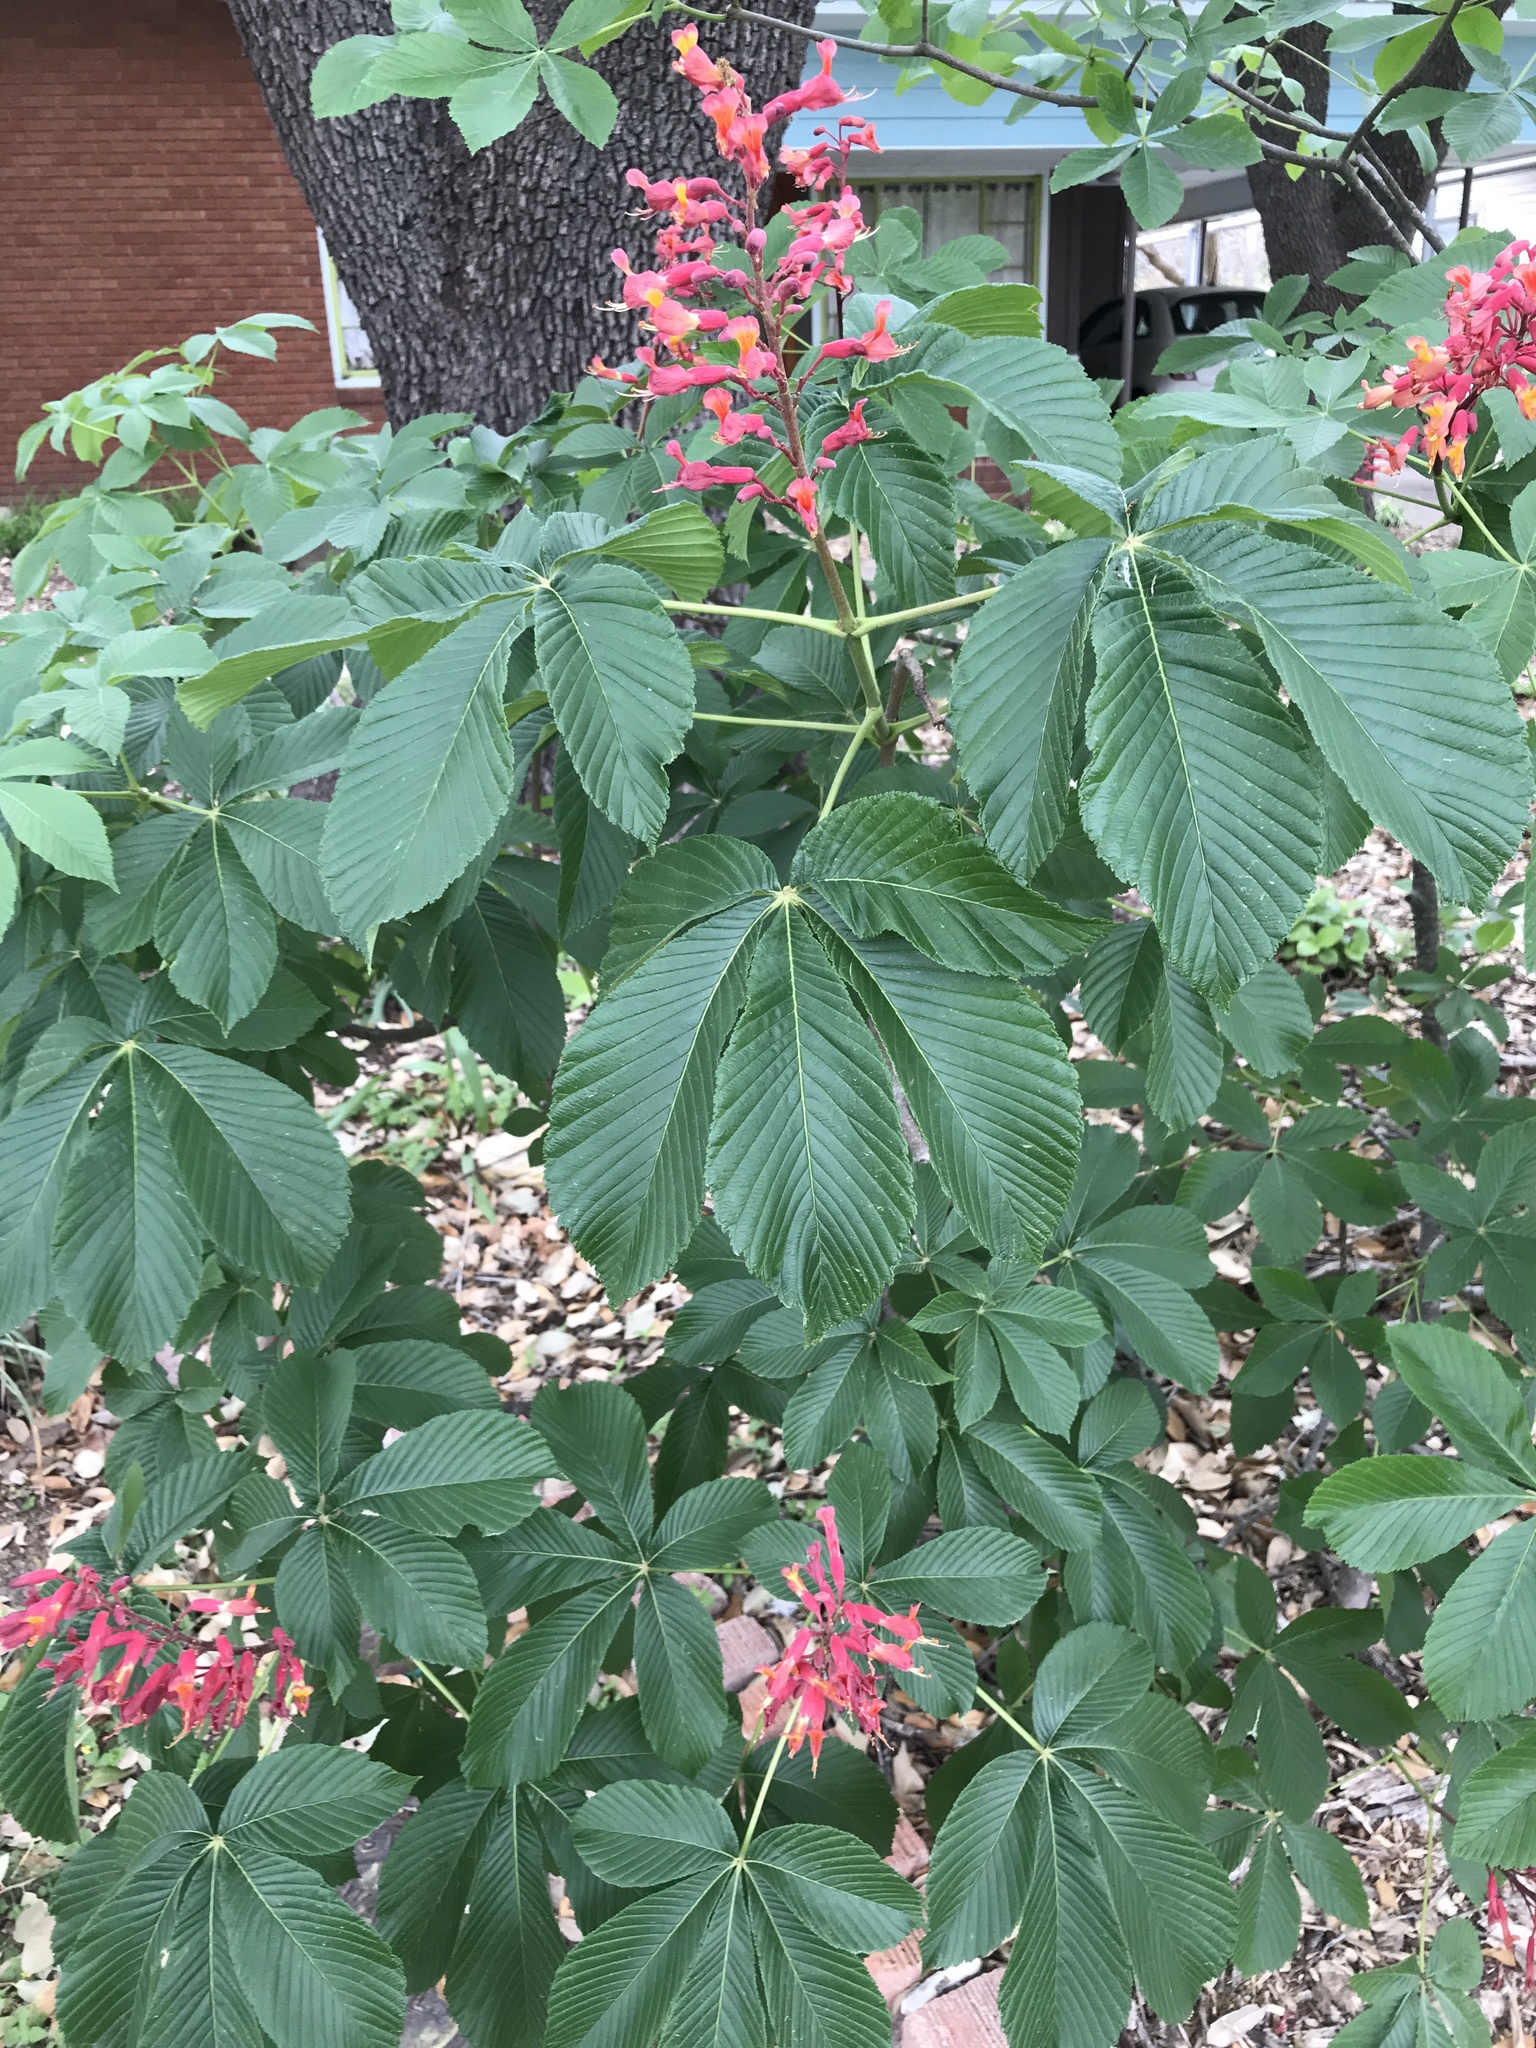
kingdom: Plantae
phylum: Tracheophyta
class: Magnoliopsida
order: Sapindales
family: Sapindaceae
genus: Aesculus
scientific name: Aesculus pavia
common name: Red buckeye
